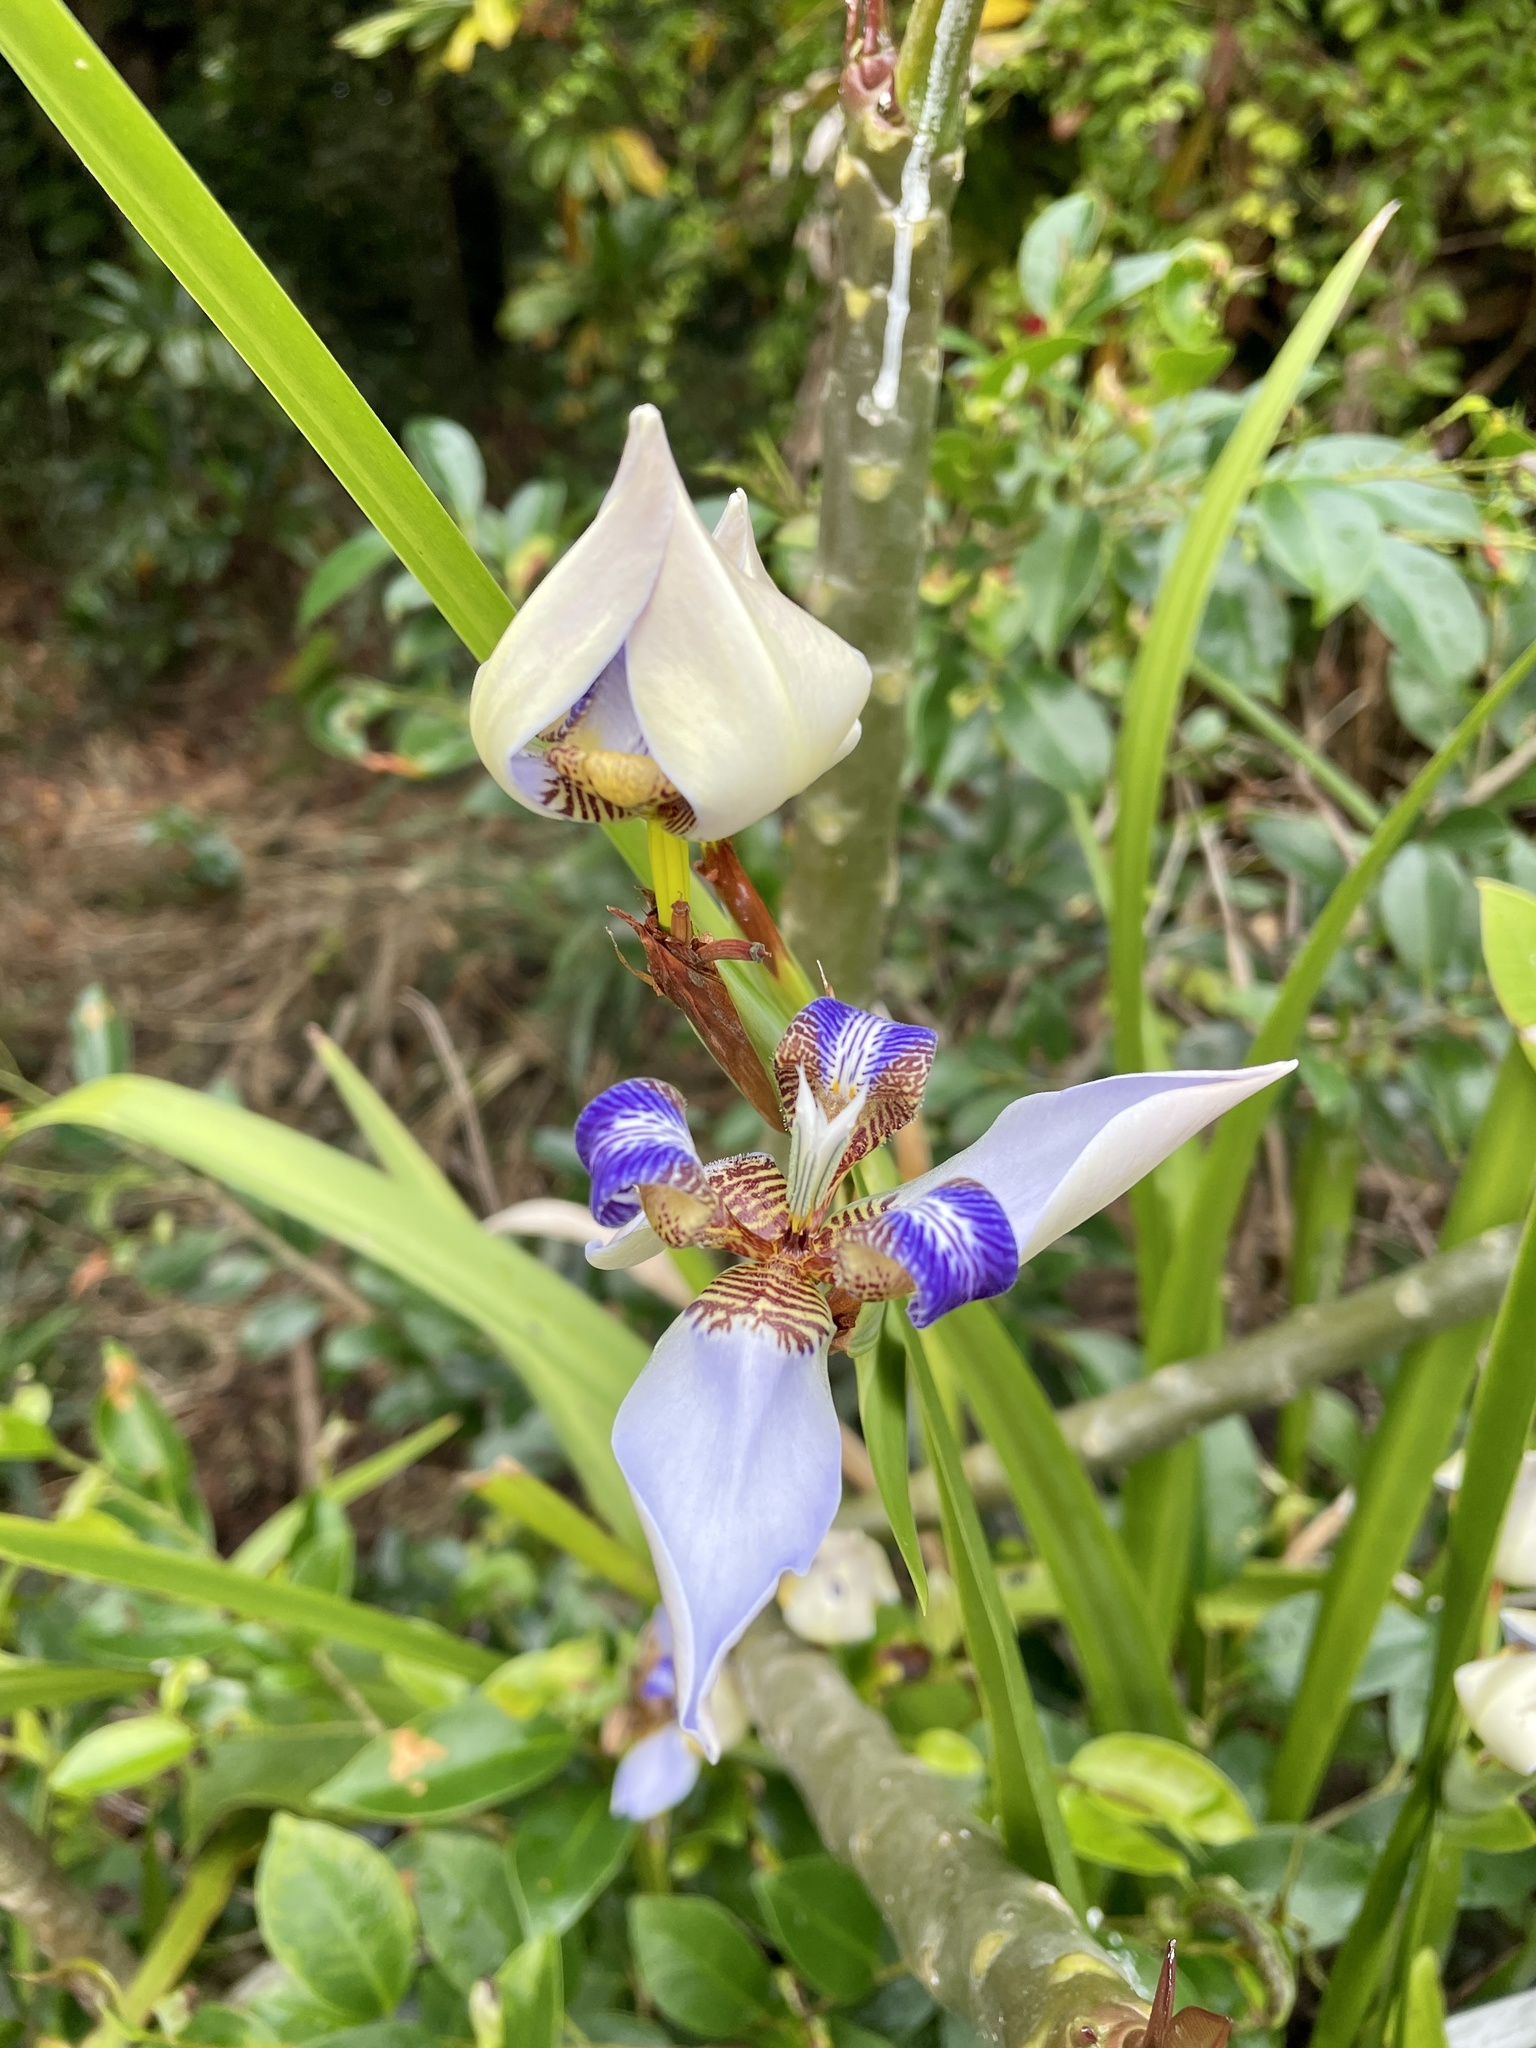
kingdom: Plantae
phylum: Tracheophyta
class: Liliopsida
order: Asparagales
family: Iridaceae
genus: Trimezia
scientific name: Trimezia northiana
